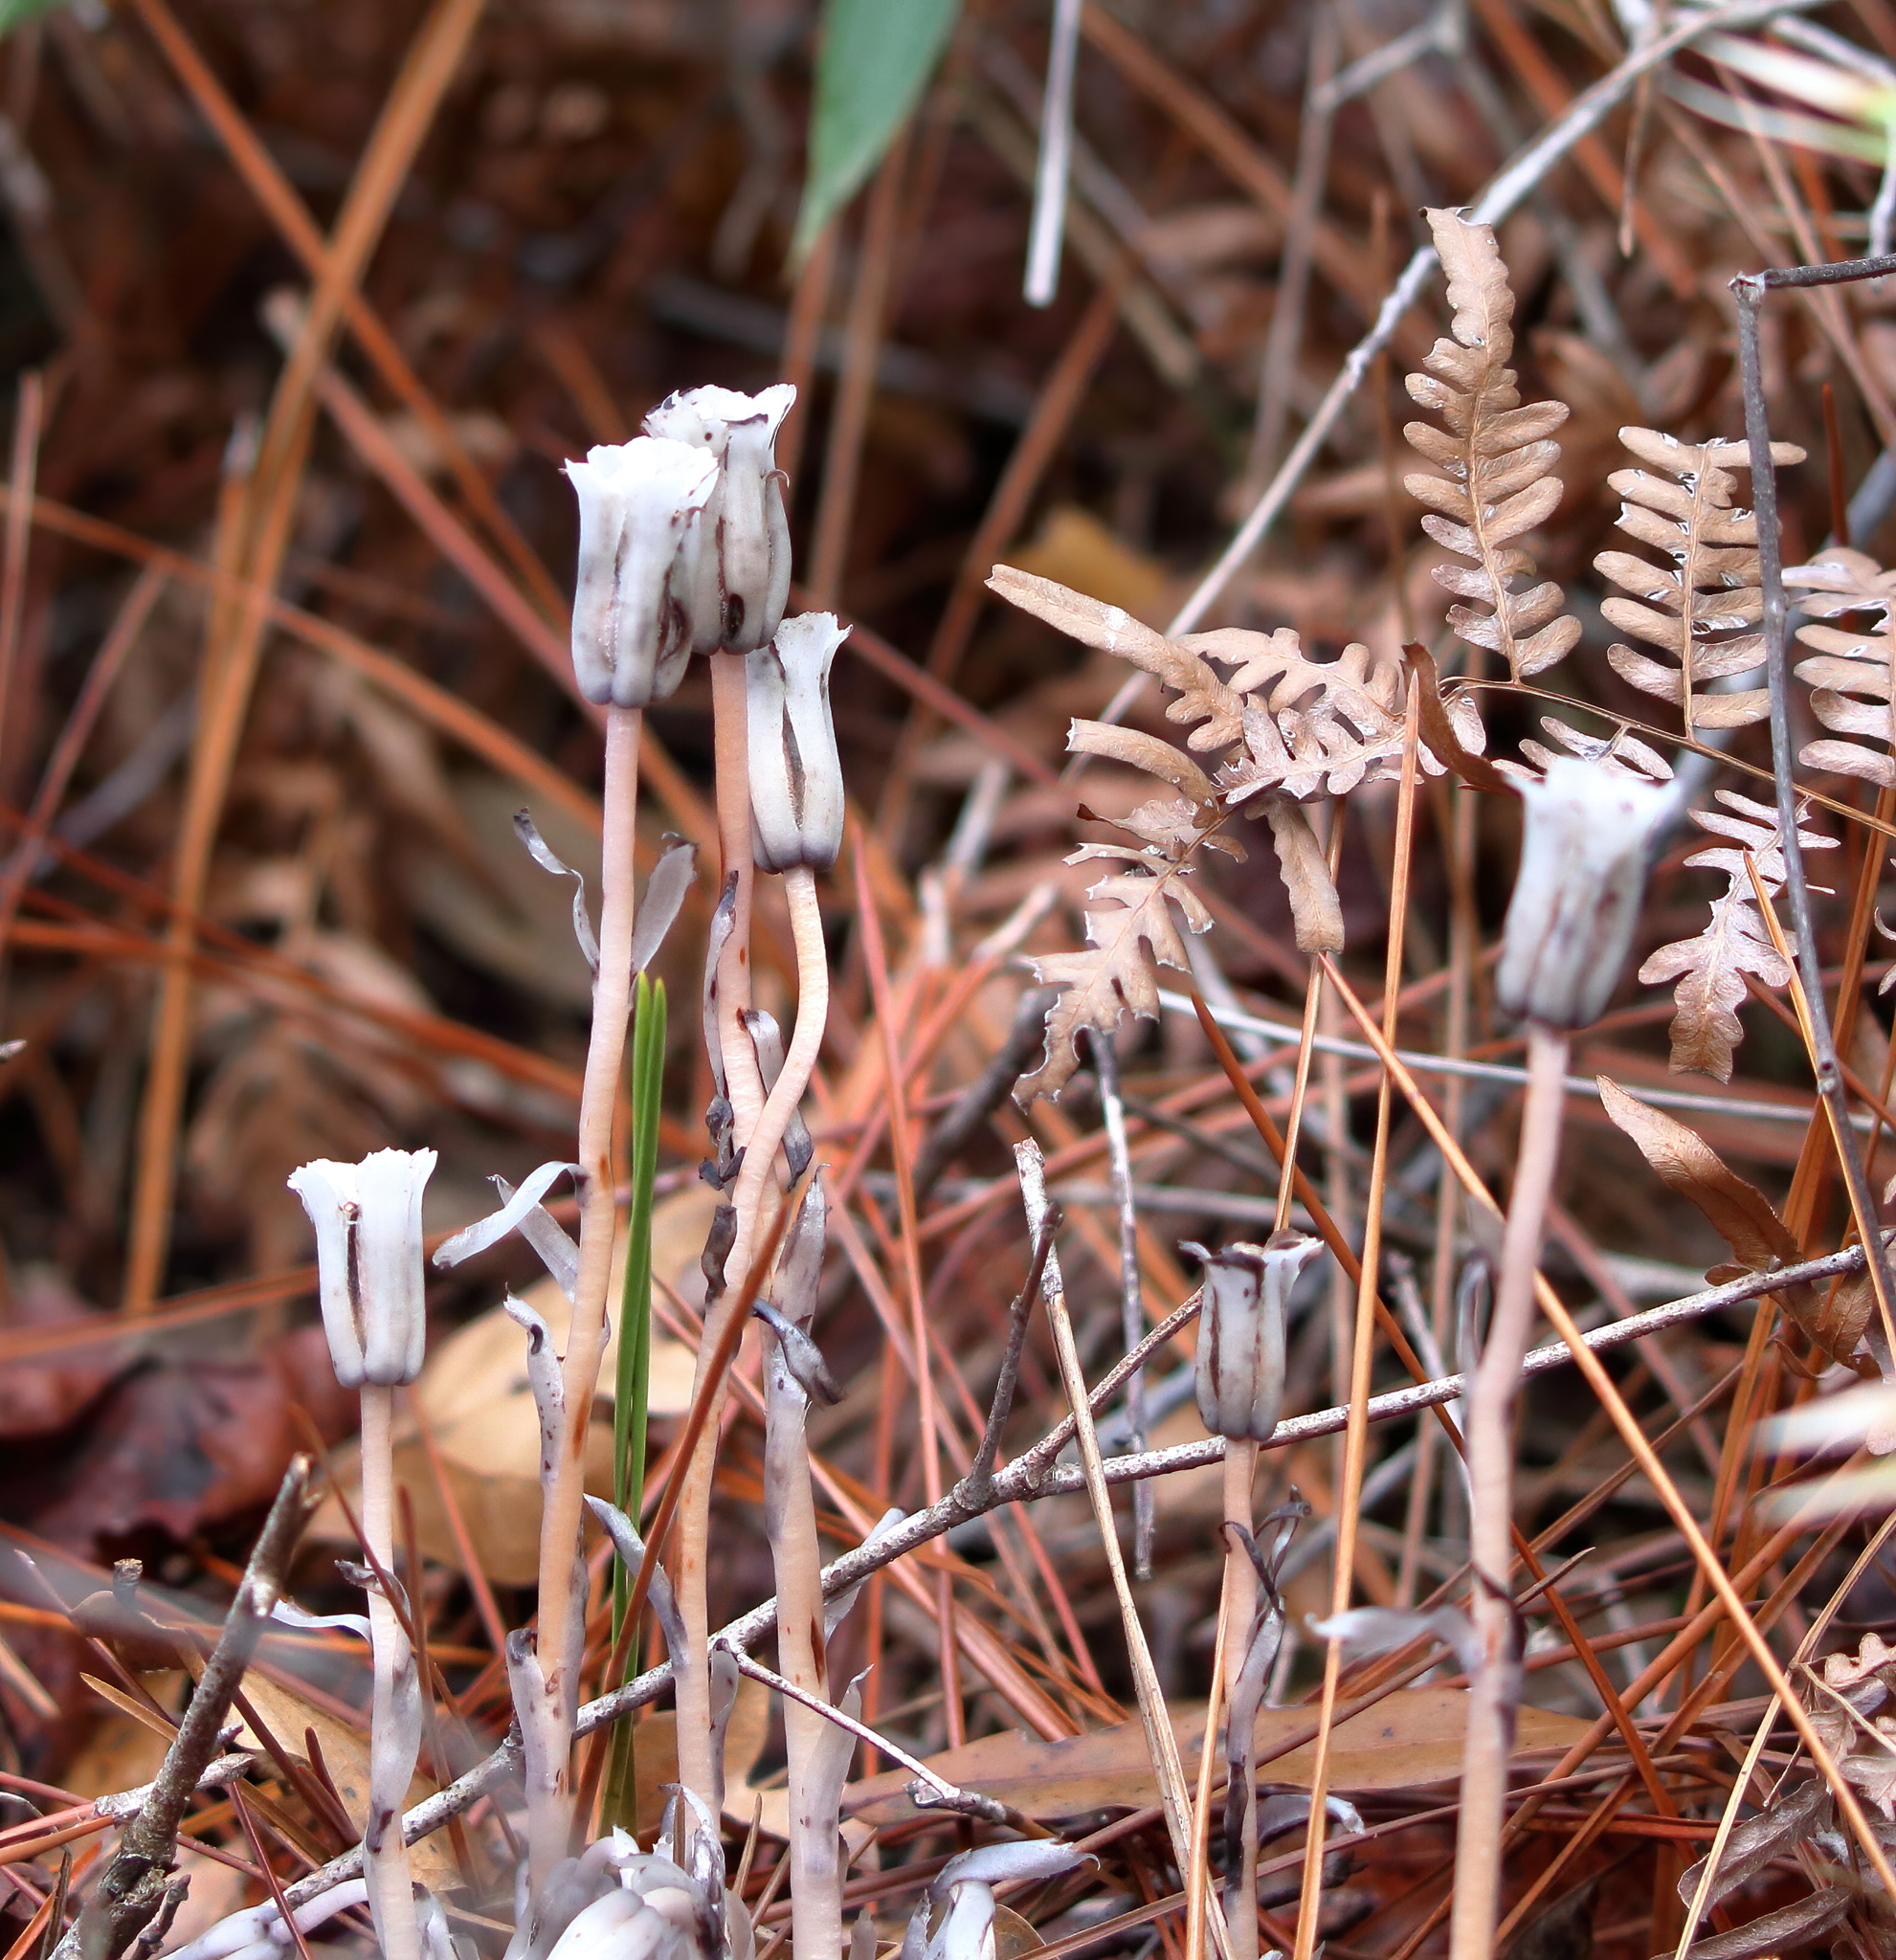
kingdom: Plantae
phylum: Tracheophyta
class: Magnoliopsida
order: Ericales
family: Ericaceae
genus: Monotropa
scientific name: Monotropa uniflora
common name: Convulsion root
